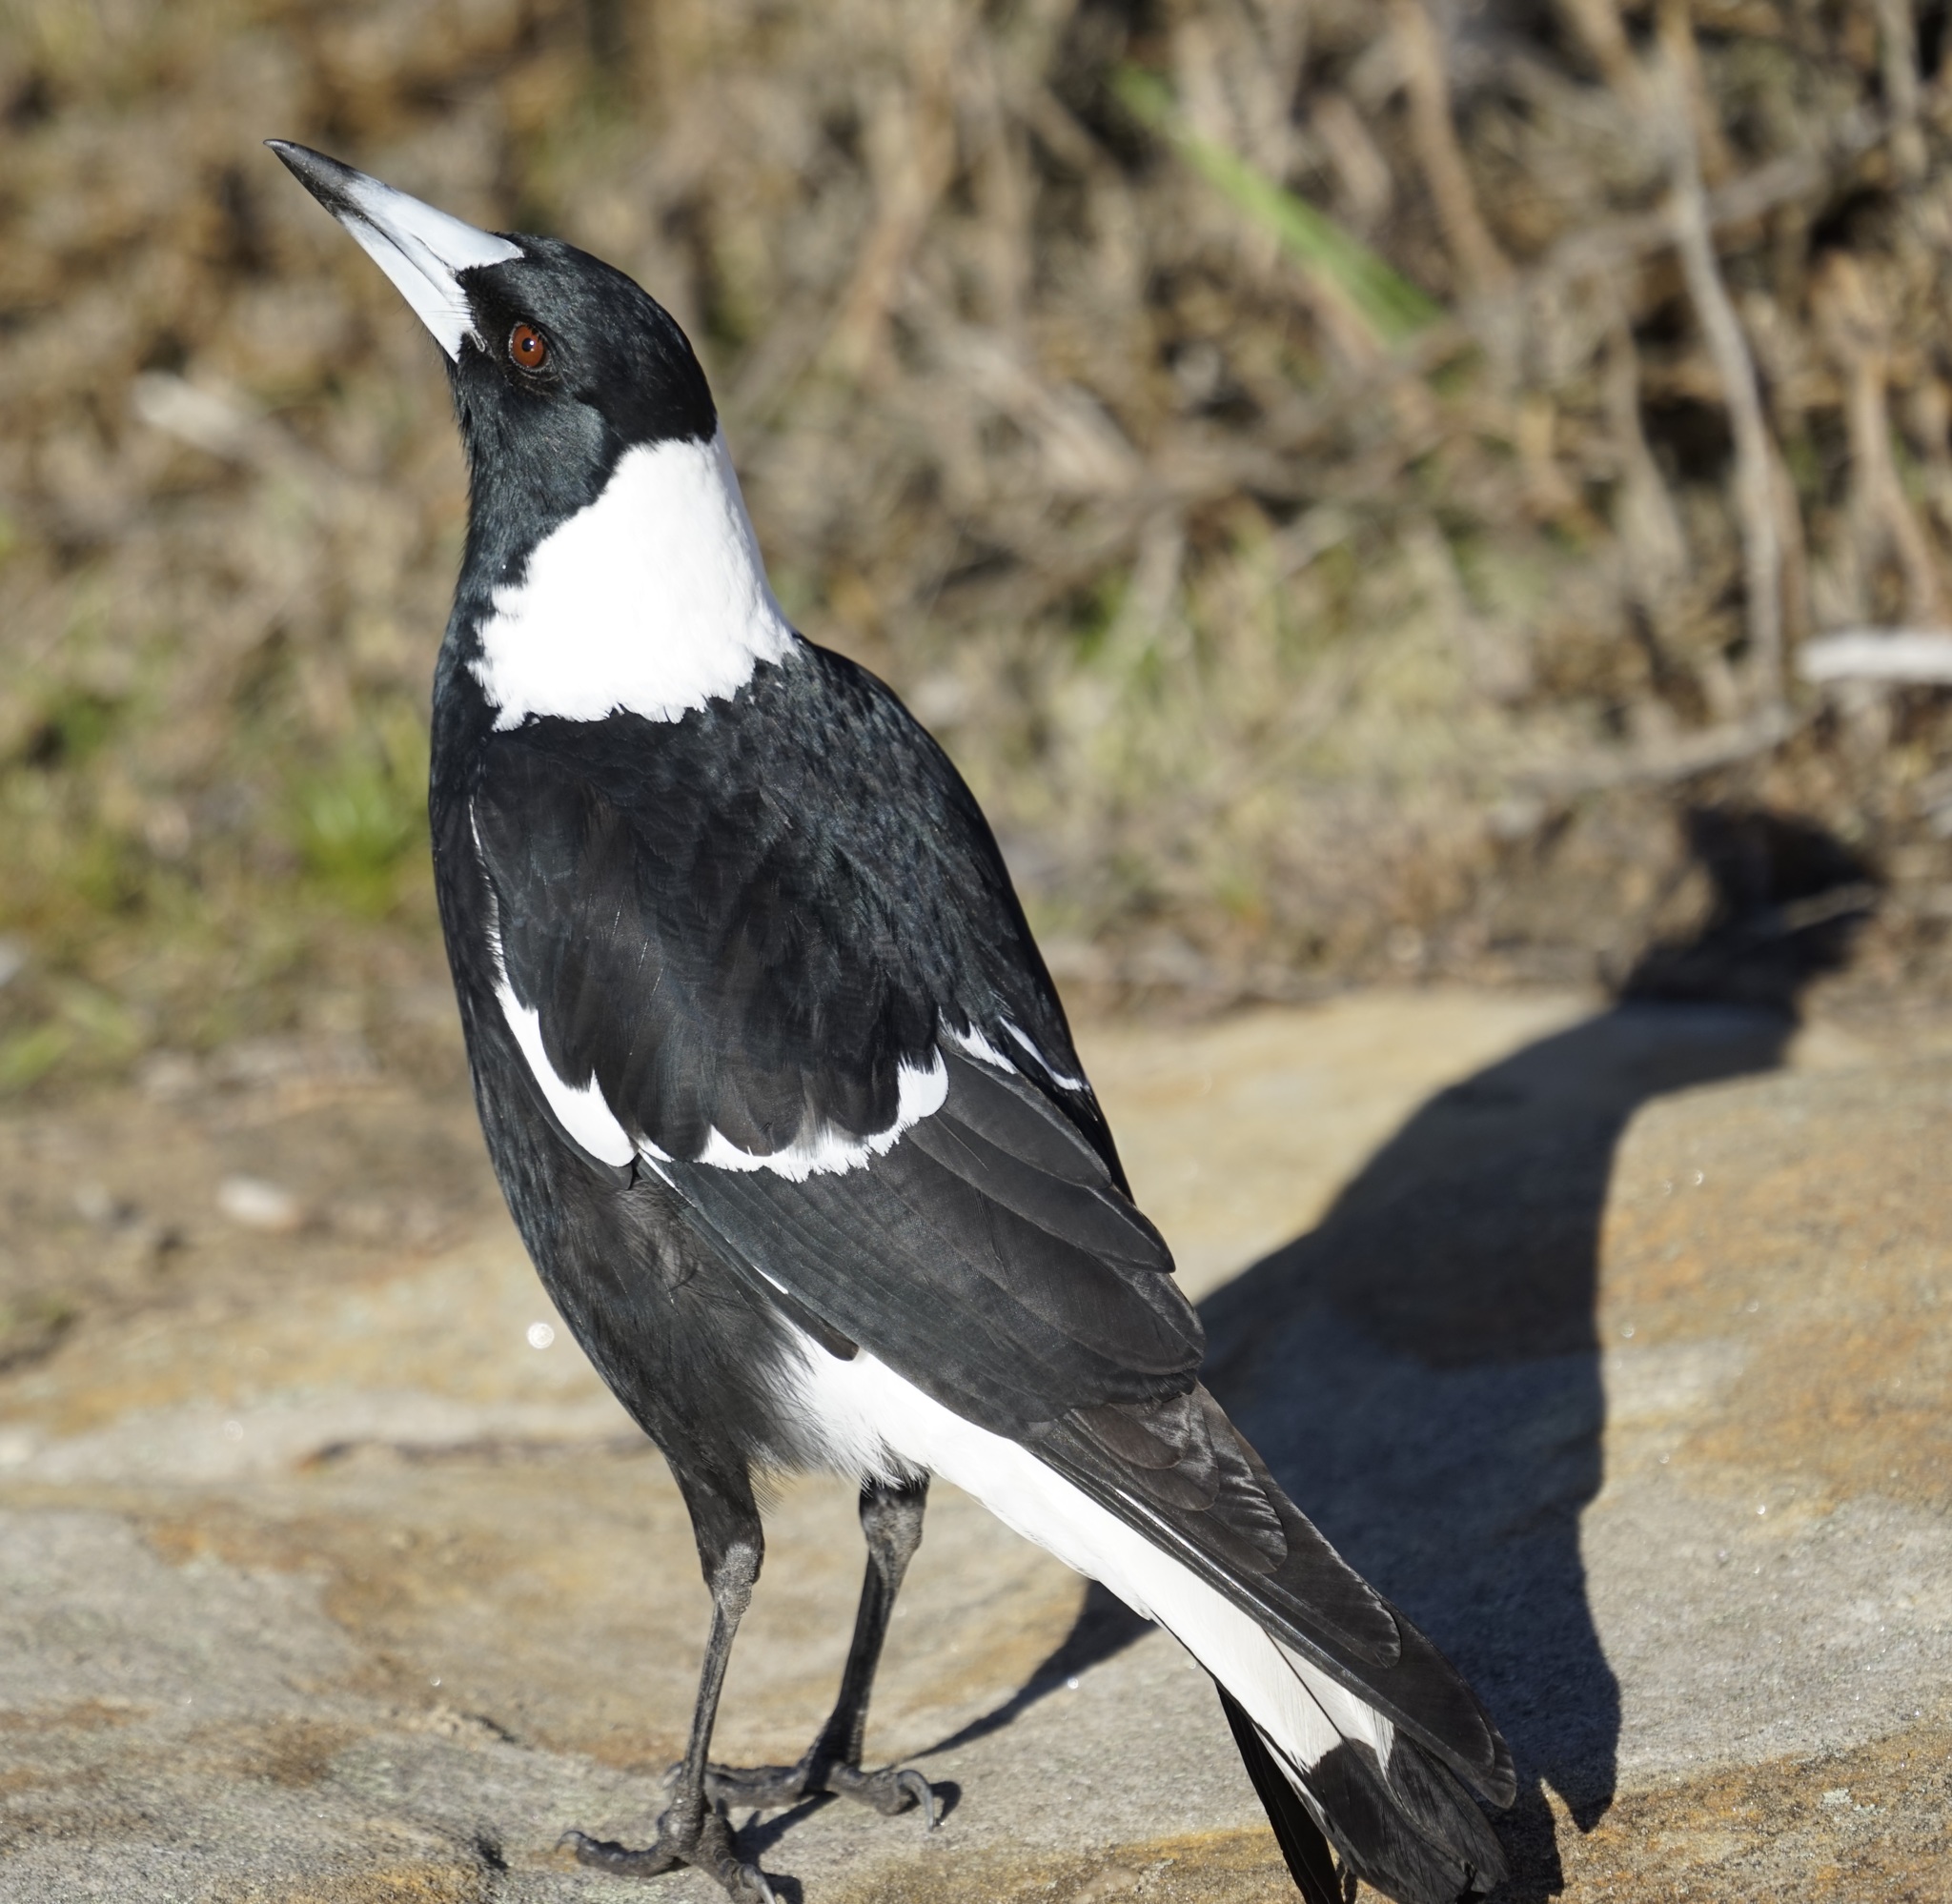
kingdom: Animalia
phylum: Chordata
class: Aves
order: Passeriformes
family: Cracticidae
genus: Gymnorhina
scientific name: Gymnorhina tibicen
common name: Australian magpie
